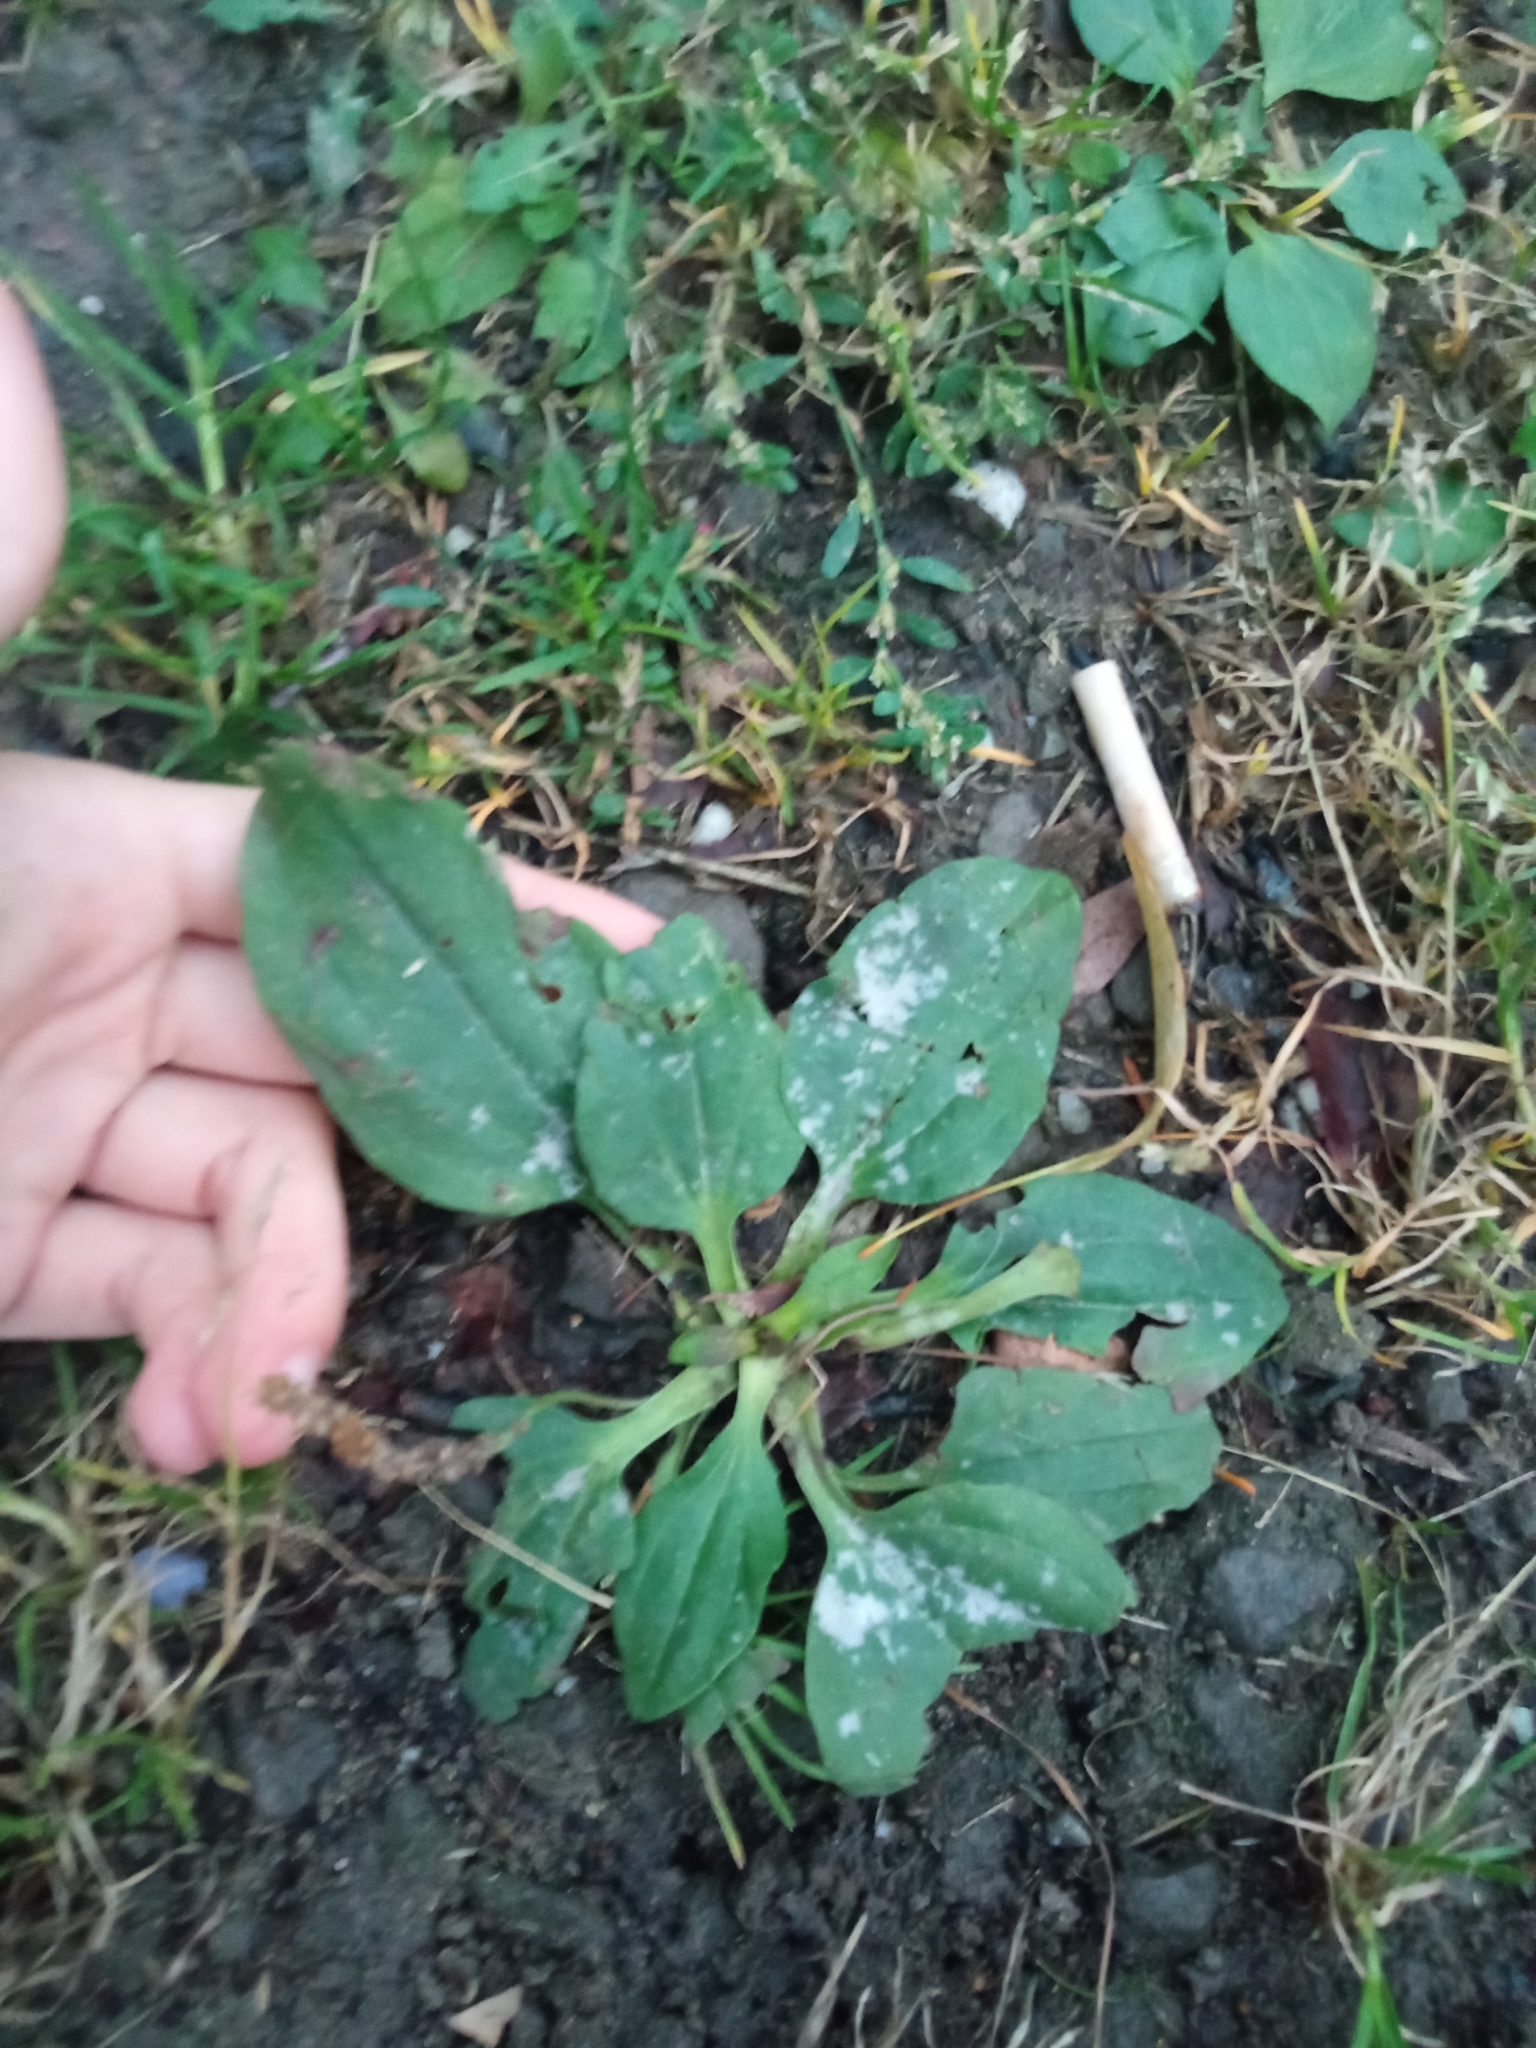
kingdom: Plantae
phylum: Tracheophyta
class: Magnoliopsida
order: Lamiales
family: Plantaginaceae
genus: Plantago
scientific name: Plantago major
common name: Common plantain
